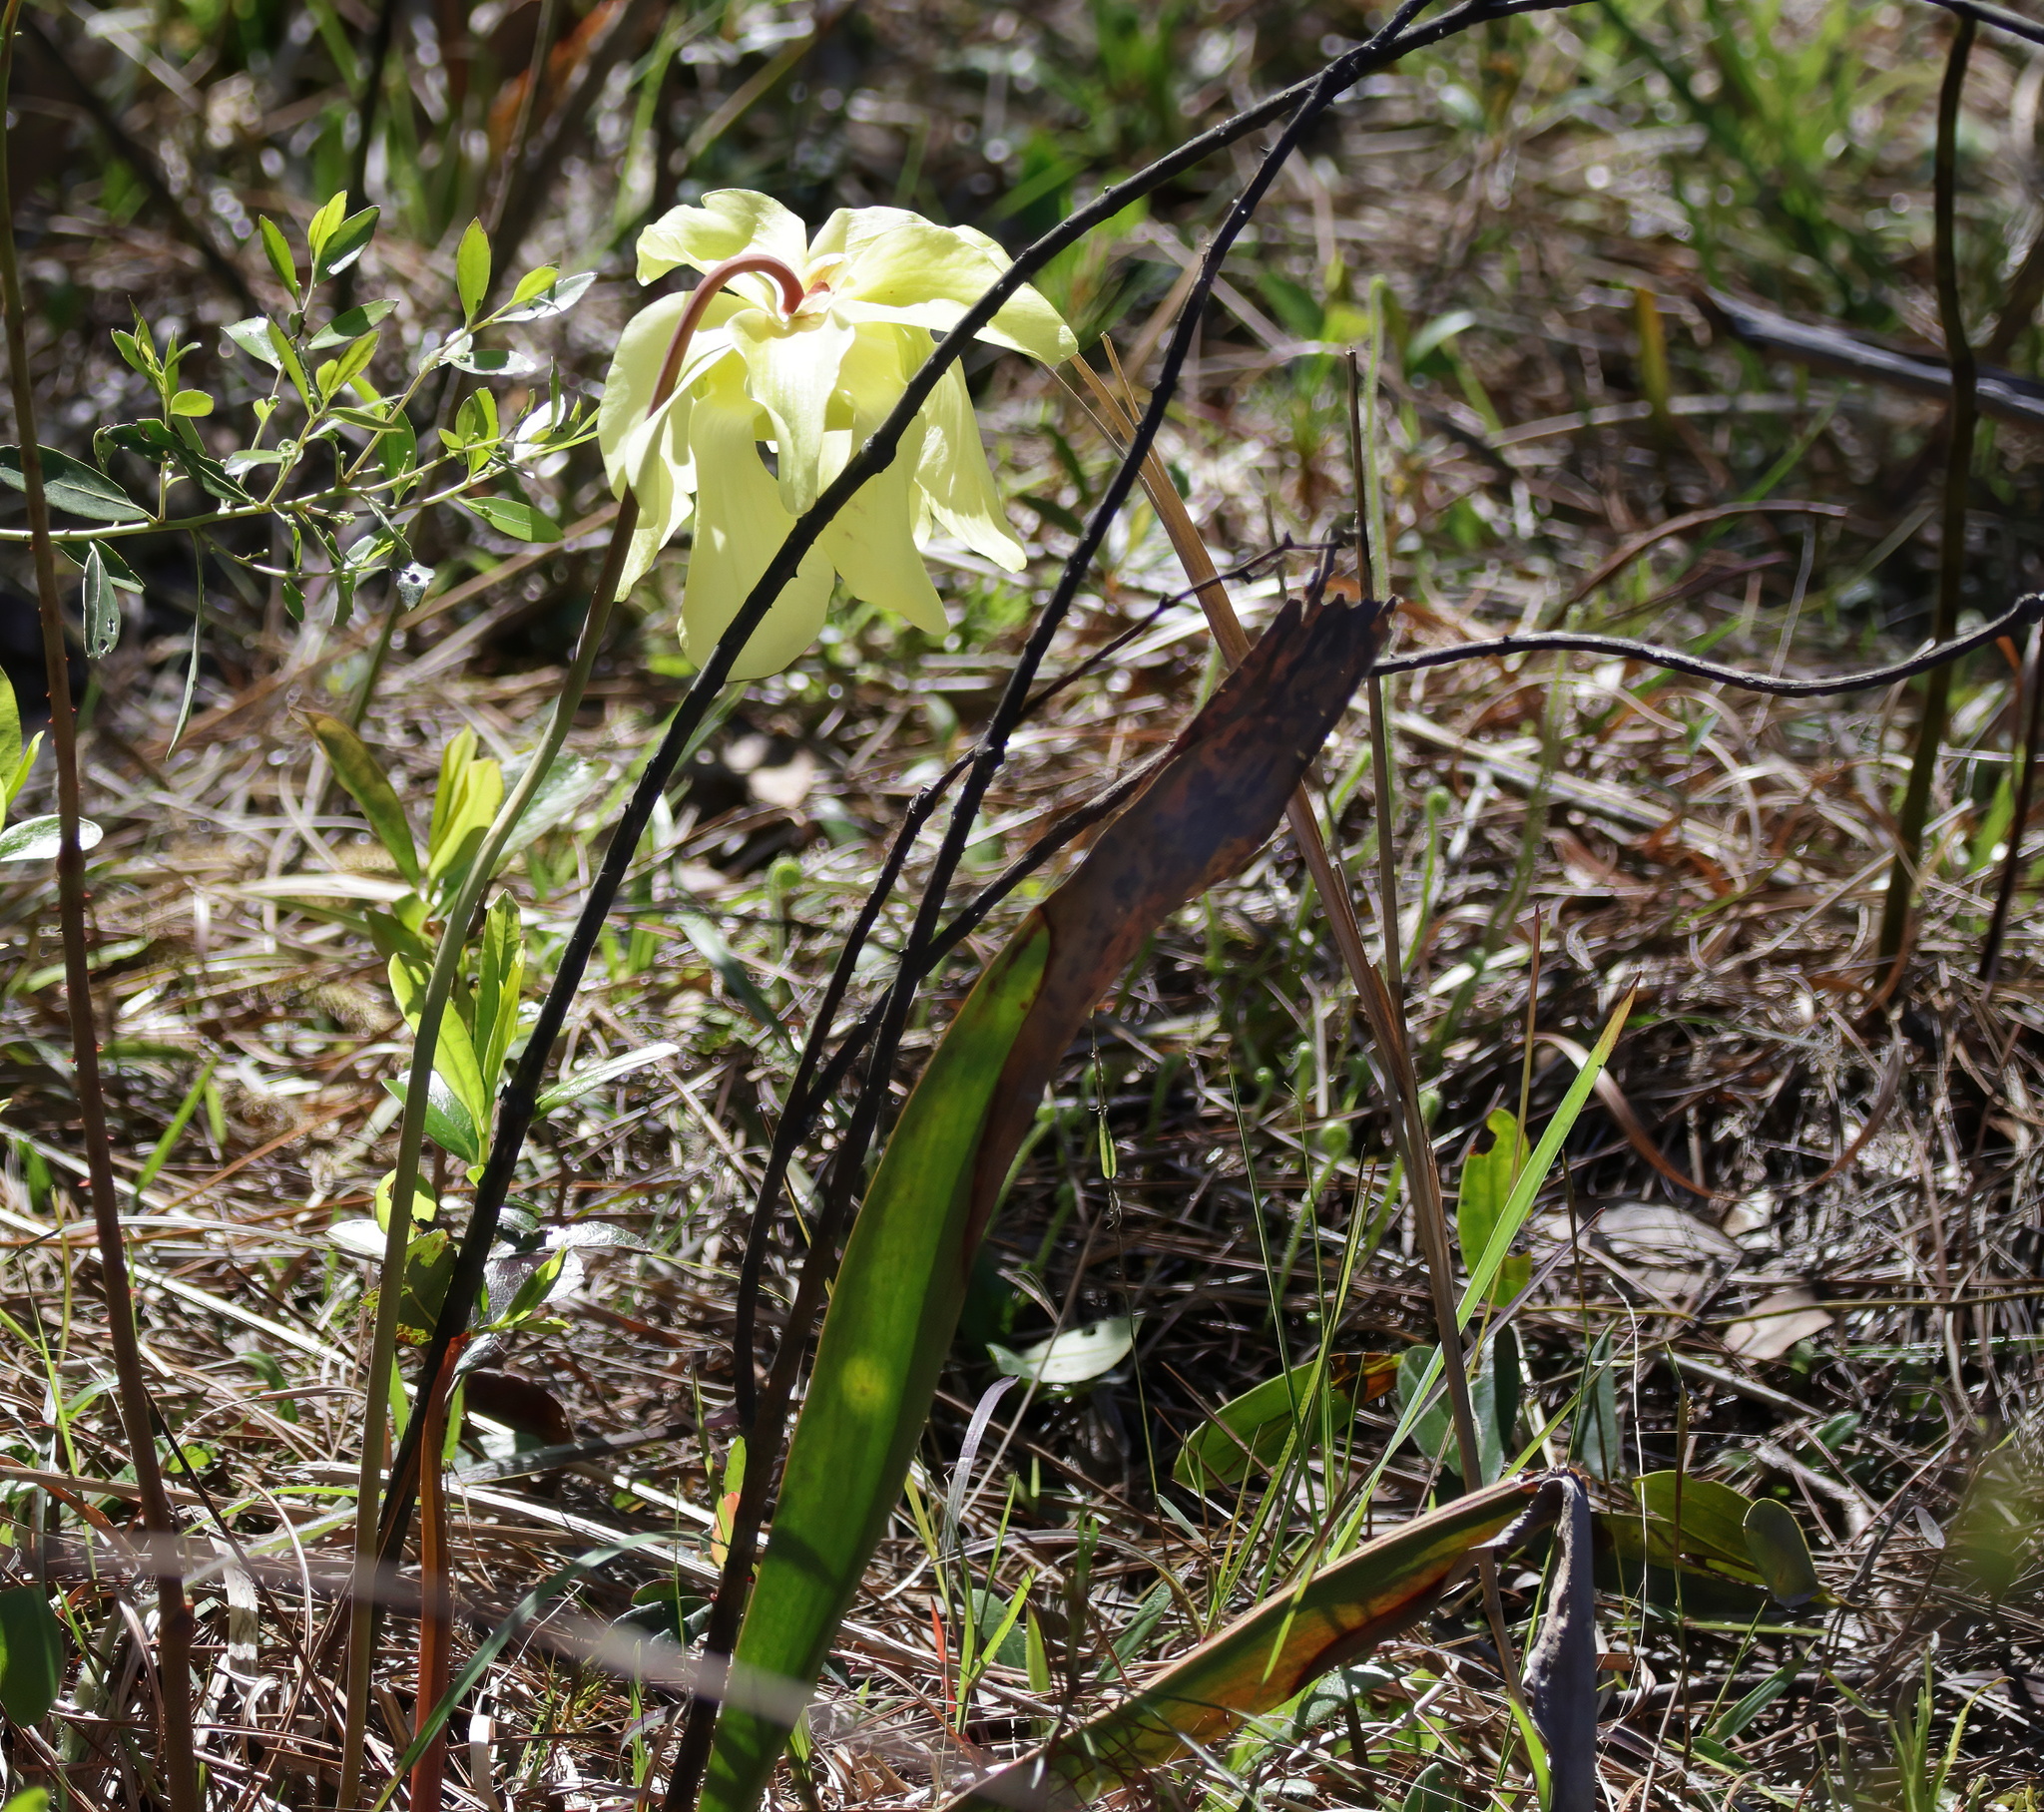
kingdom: Plantae
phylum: Tracheophyta
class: Magnoliopsida
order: Ericales
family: Sarraceniaceae
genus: Sarracenia
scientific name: Sarracenia alata
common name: Yellow trumpets
